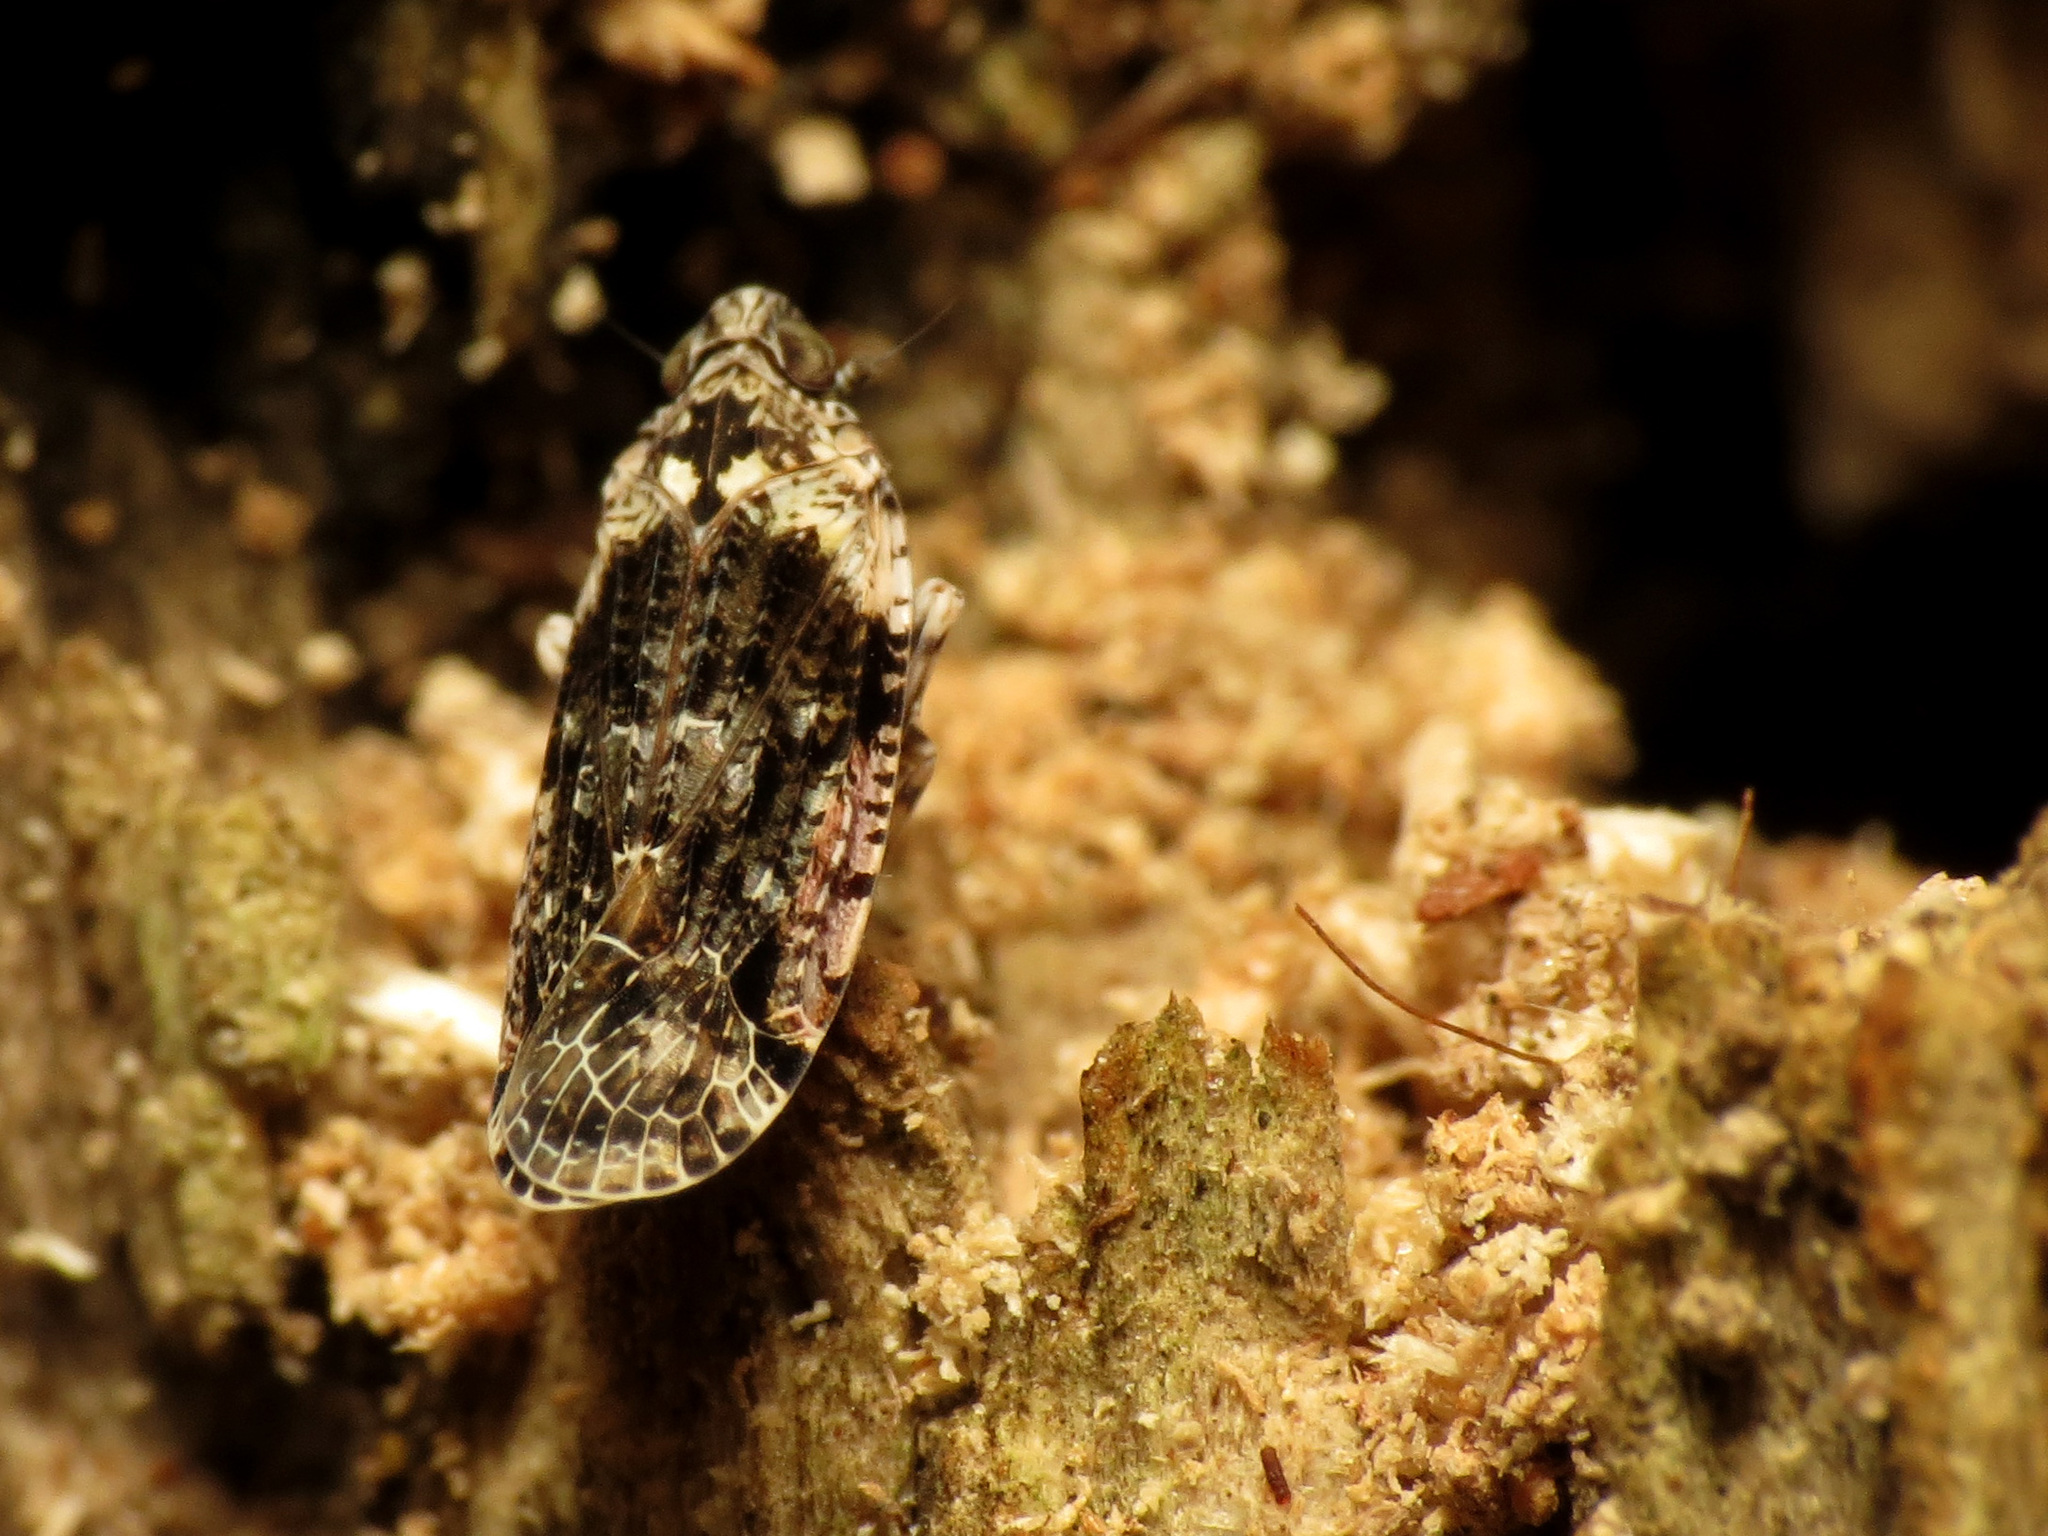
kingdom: Animalia
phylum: Arthropoda
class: Insecta
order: Hemiptera
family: Achilidae
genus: Catonia
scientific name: Catonia nava
